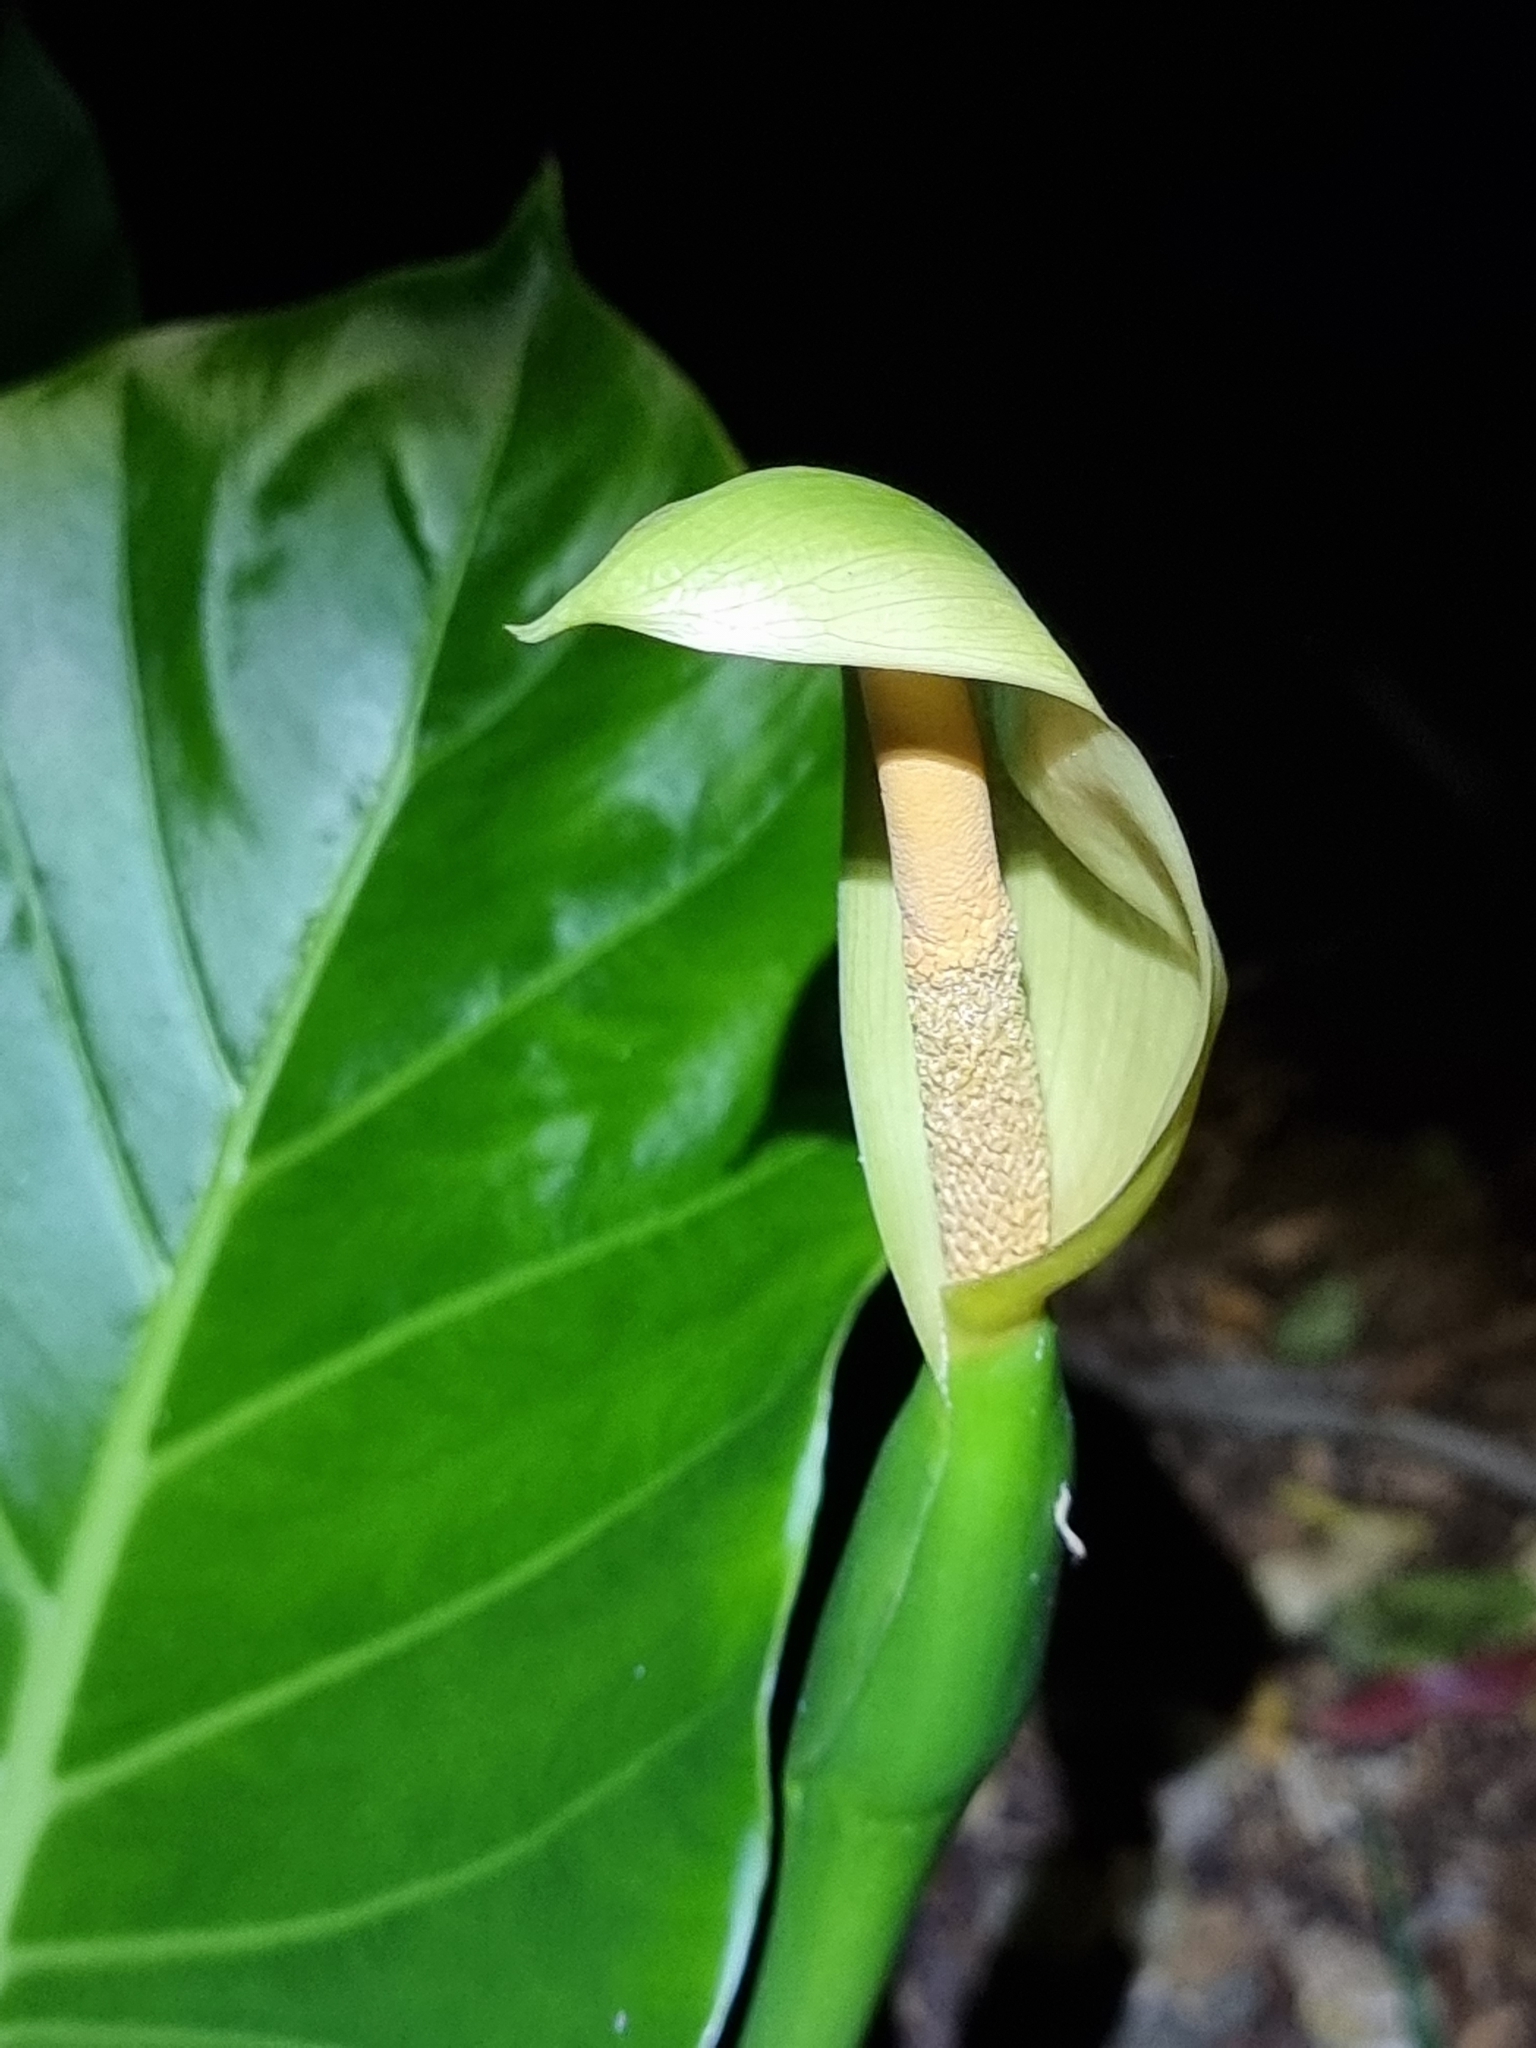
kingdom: Plantae
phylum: Tracheophyta
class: Liliopsida
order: Alismatales
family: Araceae
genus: Alocasia
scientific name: Alocasia brisbanensis
